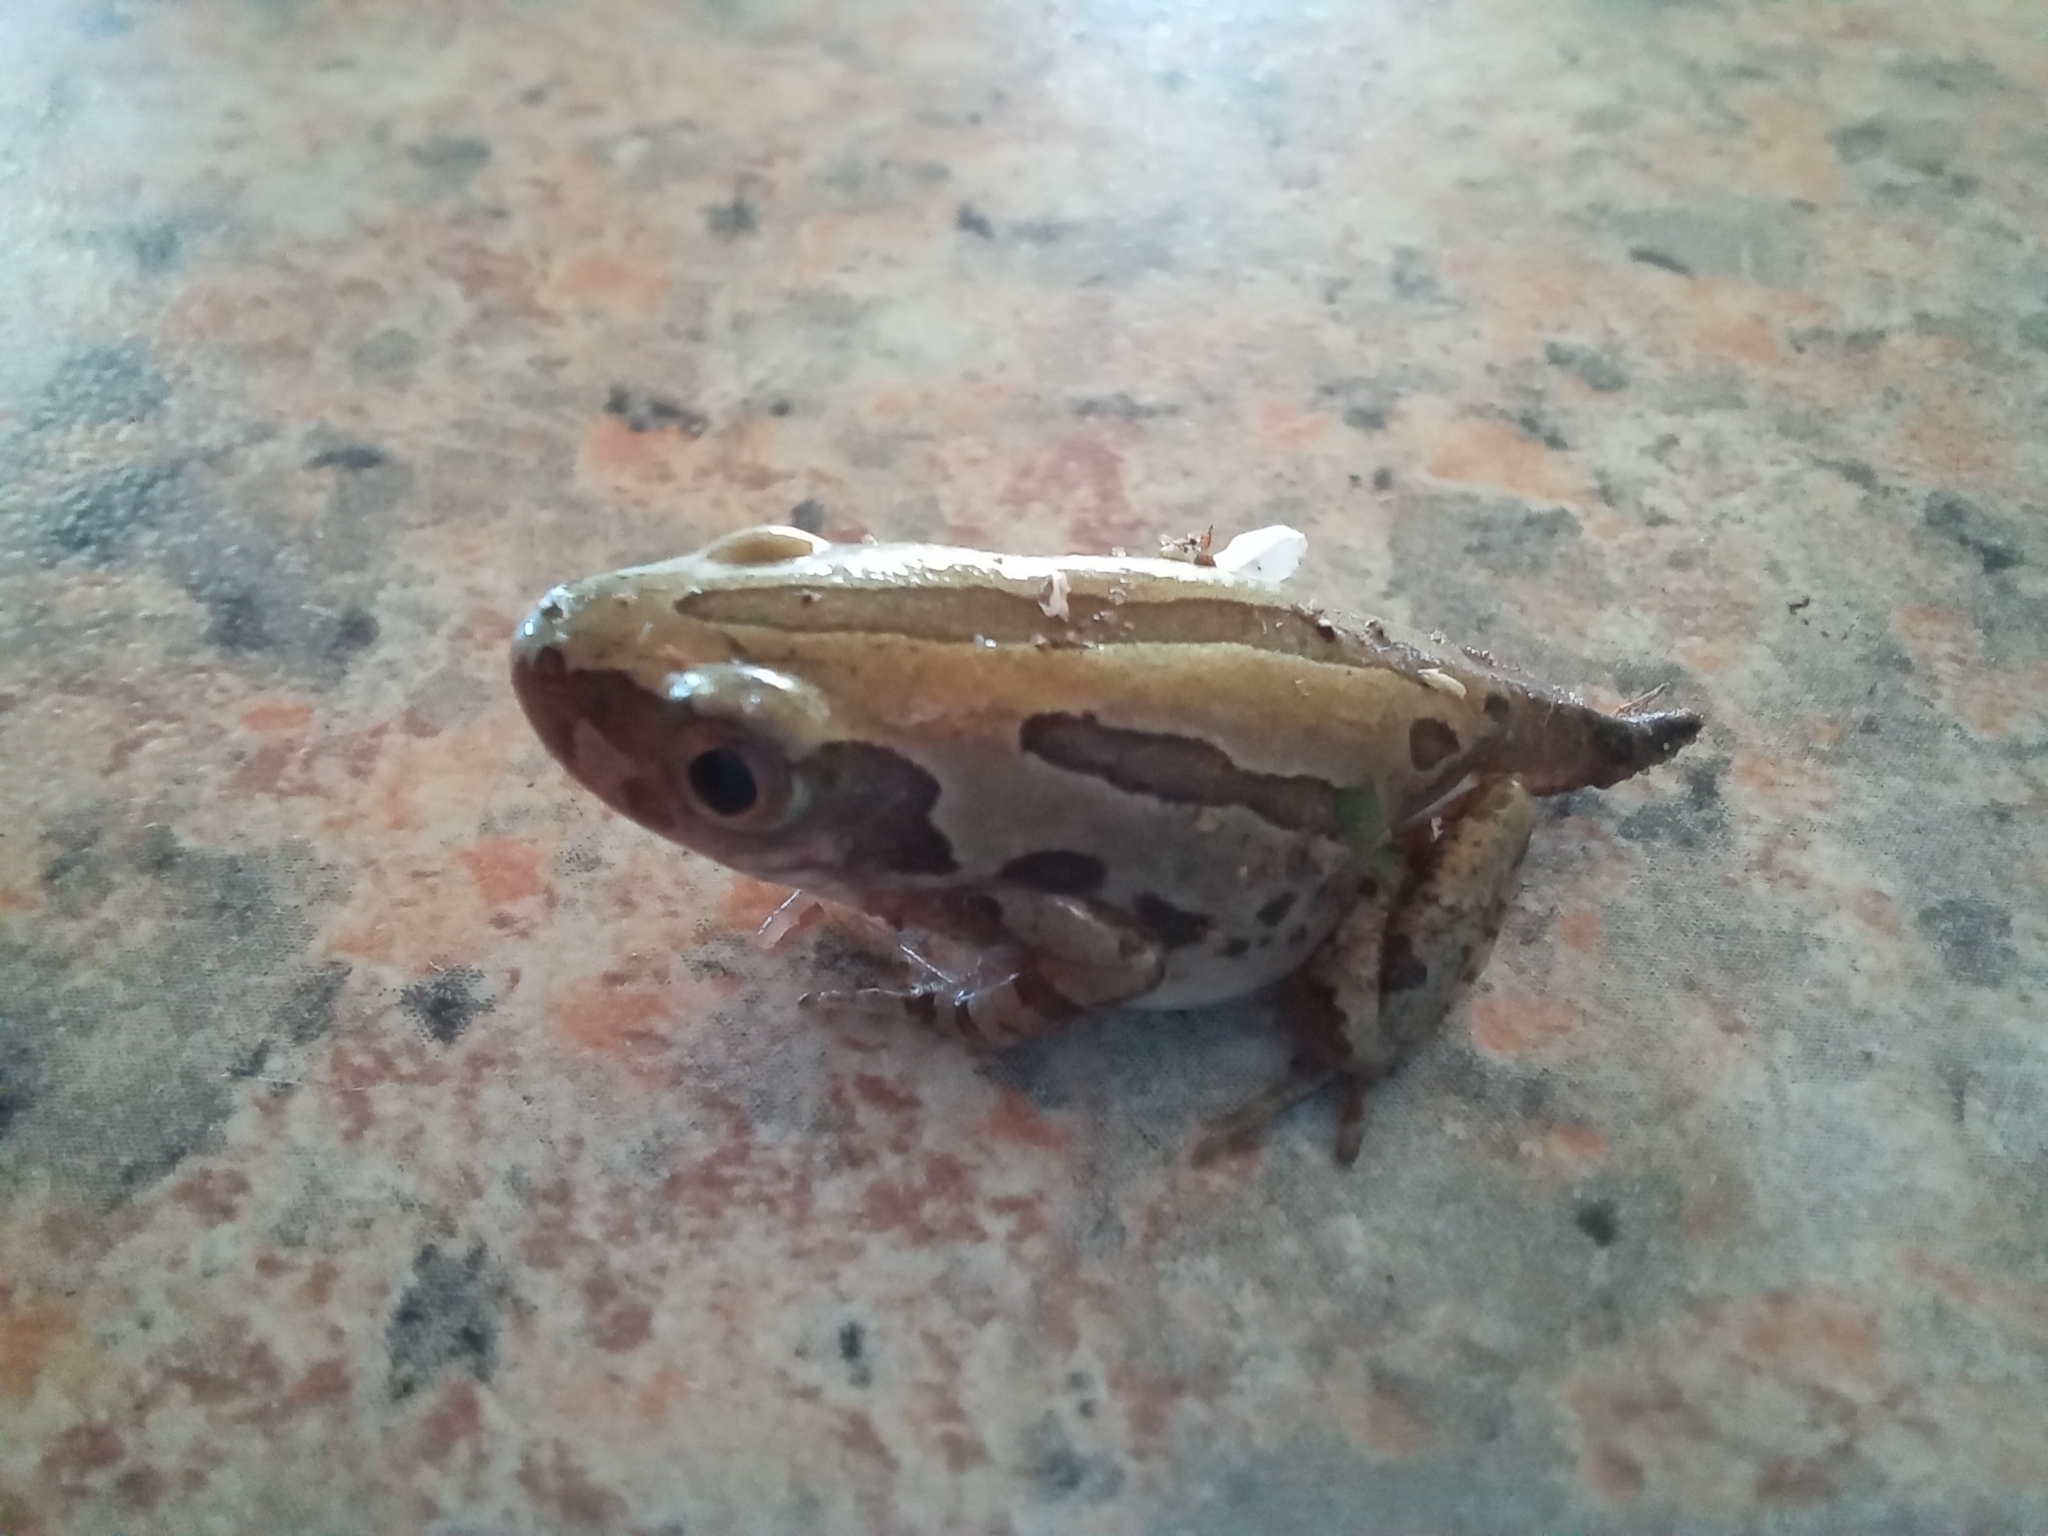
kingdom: Animalia
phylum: Chordata
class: Amphibia
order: Anura
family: Hyperoliidae
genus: Kassina
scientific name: Kassina senegalensis
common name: Senegal land frog
